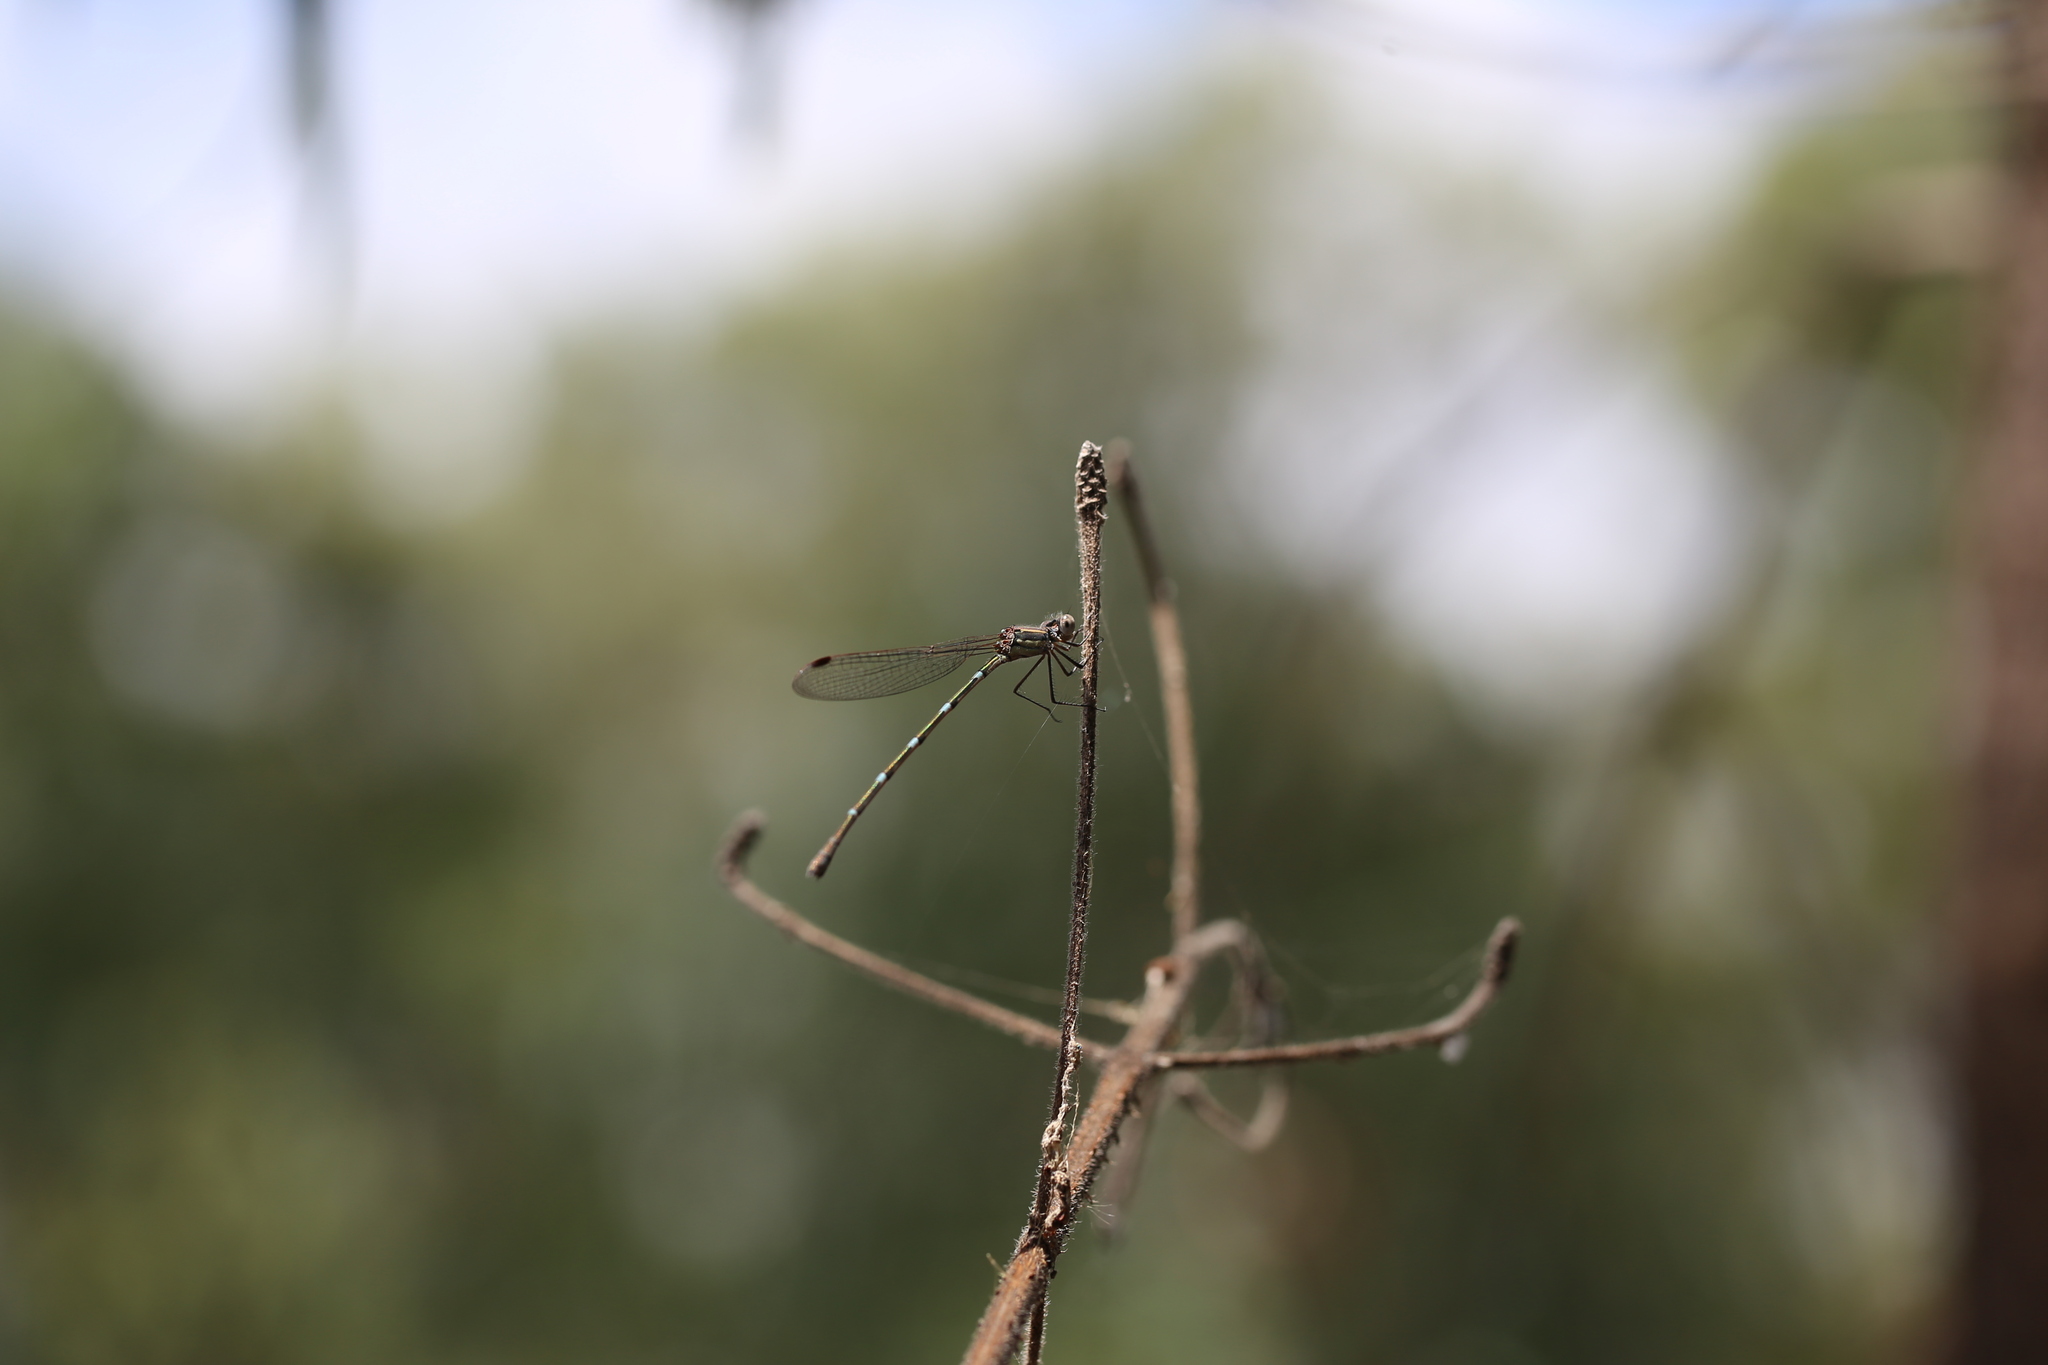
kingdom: Animalia
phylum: Arthropoda
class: Insecta
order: Odonata
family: Lestidae
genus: Austrolestes
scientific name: Austrolestes leda
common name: Wandering ringtail
